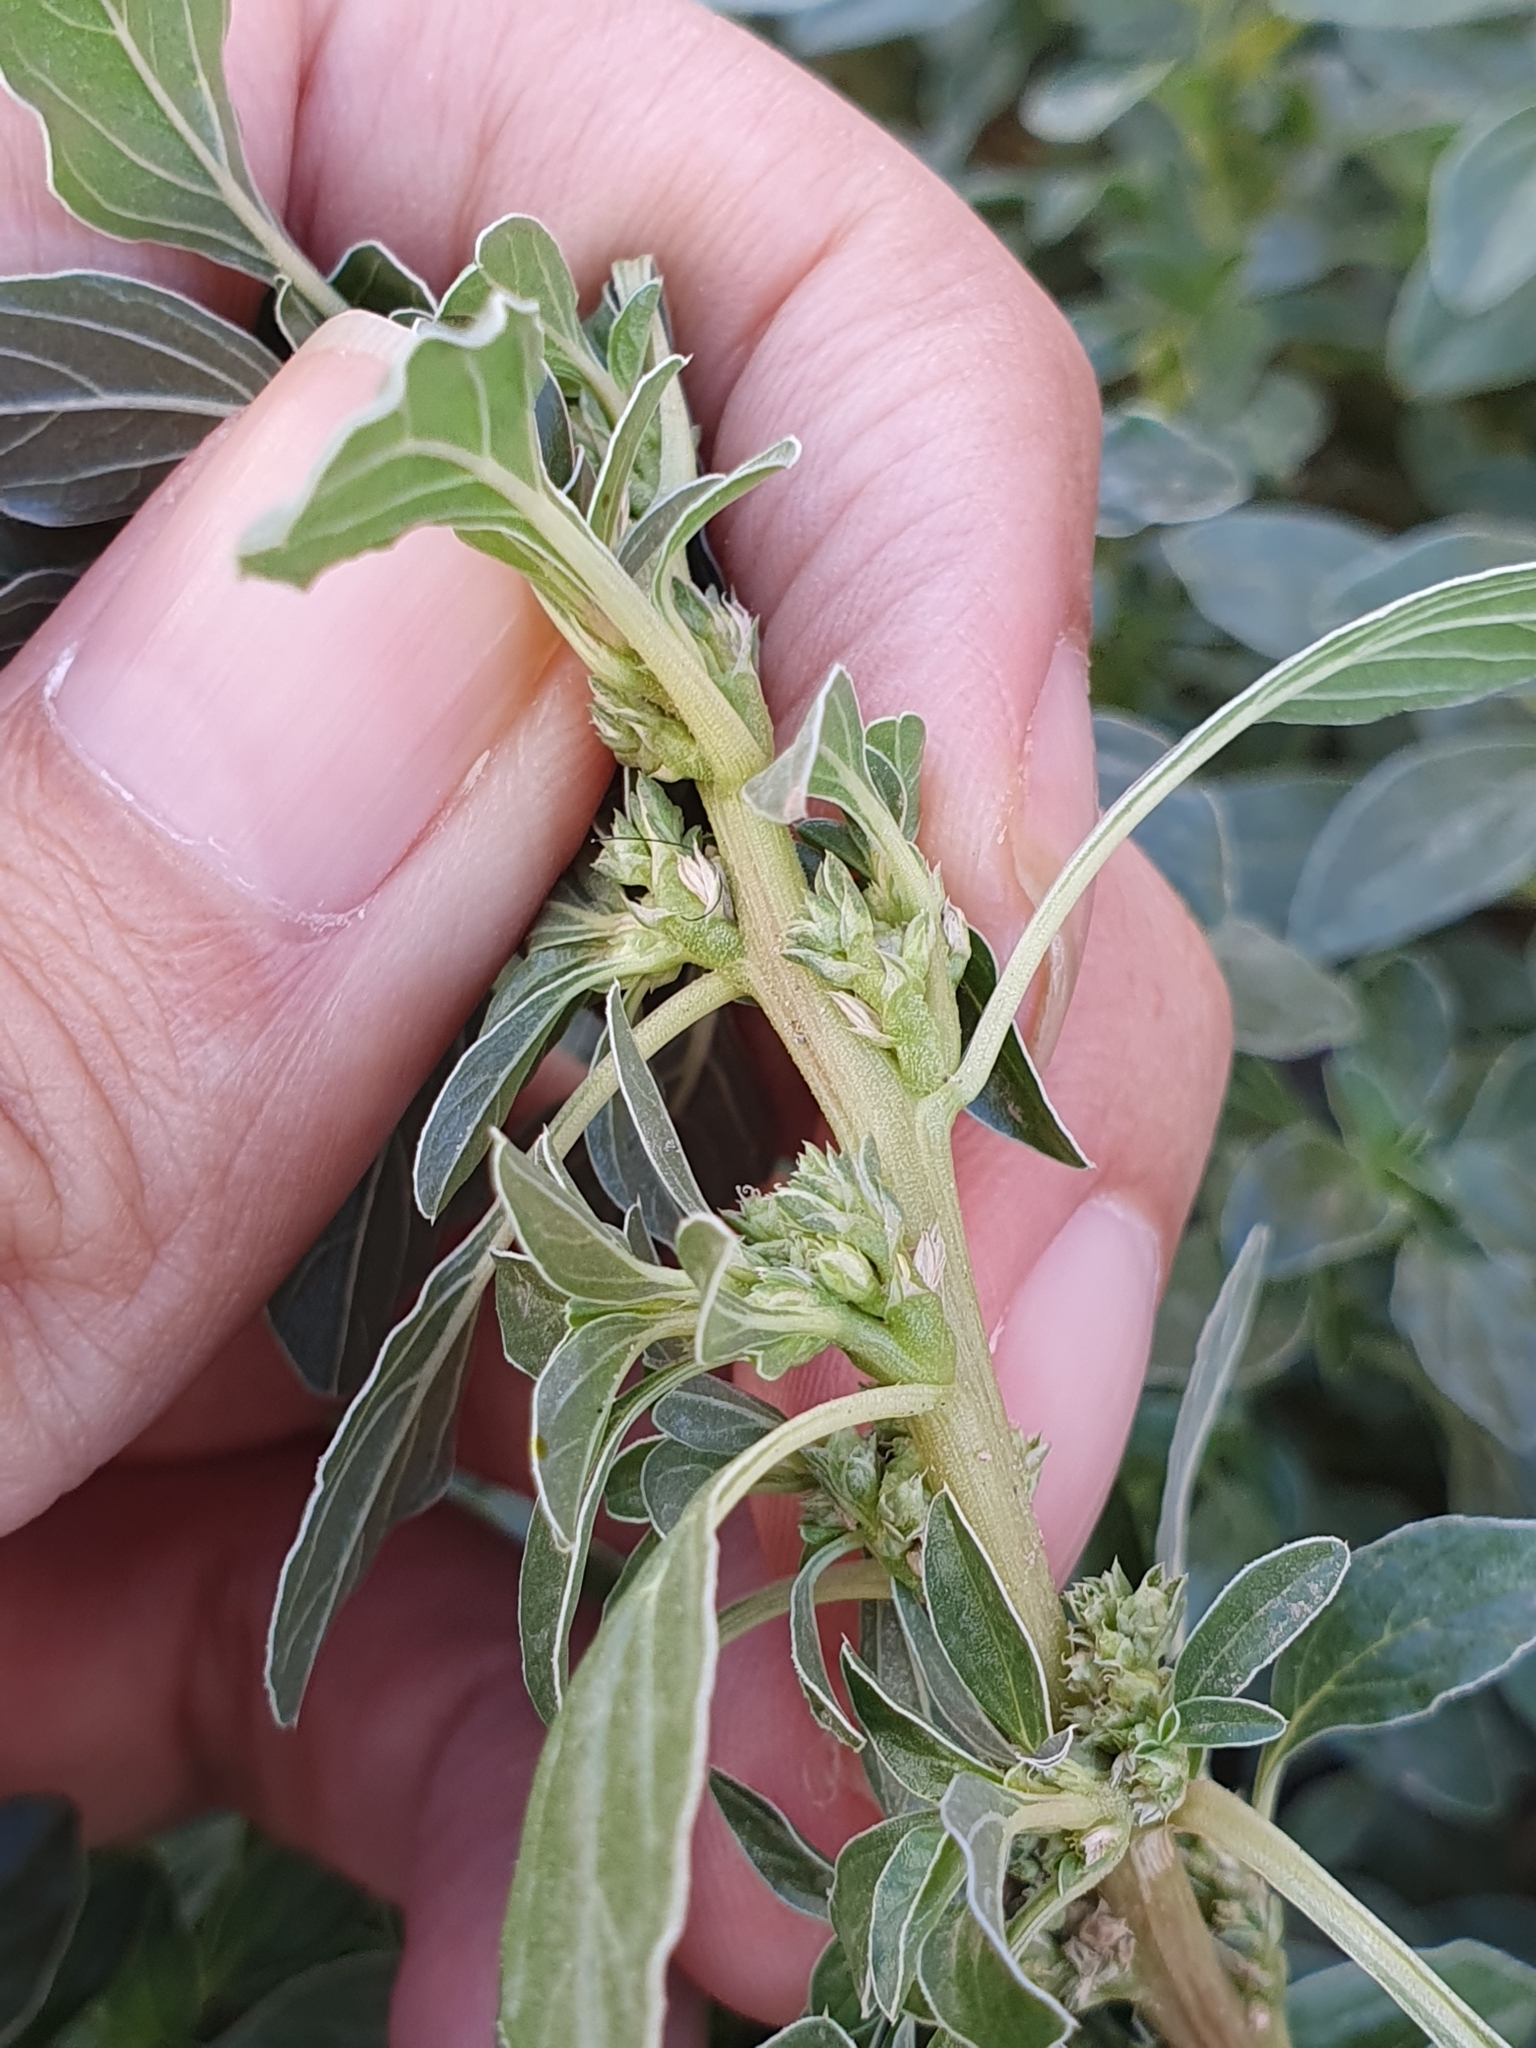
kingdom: Plantae
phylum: Tracheophyta
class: Magnoliopsida
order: Caryophyllales
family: Amaranthaceae
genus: Amaranthus
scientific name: Amaranthus blitoides
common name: Prostrate pigweed
